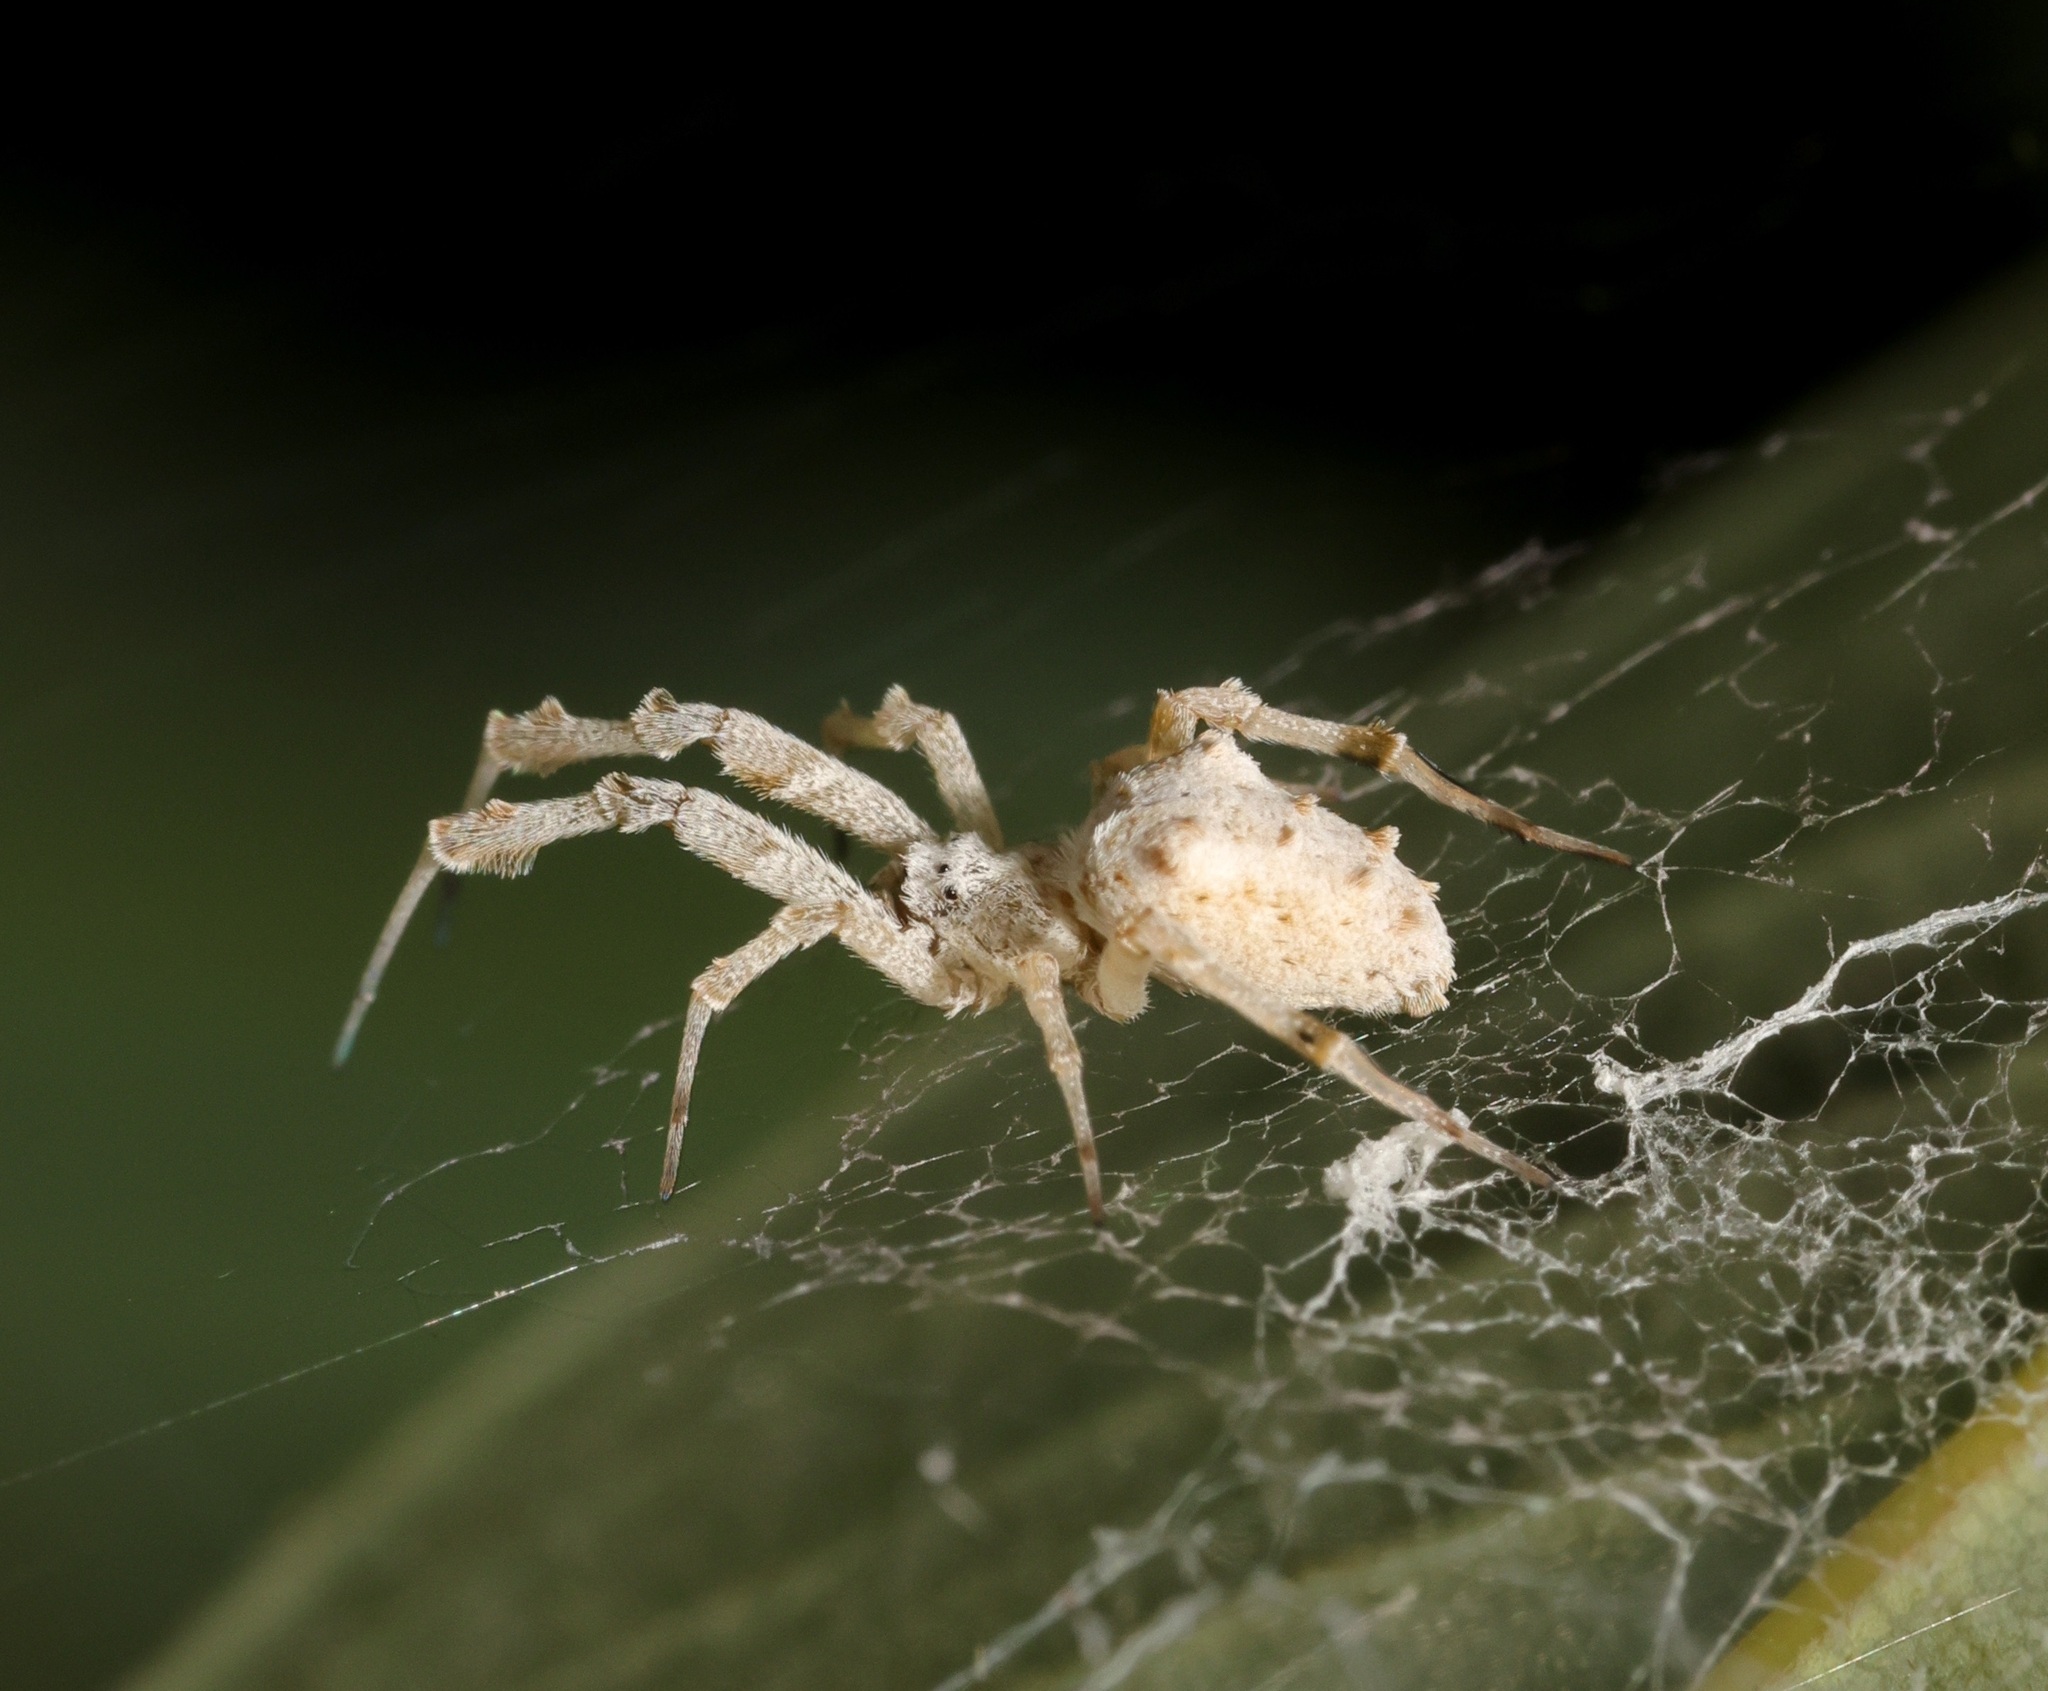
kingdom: Animalia
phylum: Arthropoda
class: Arachnida
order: Araneae
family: Uloboridae
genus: Uloborus
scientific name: Uloborus plumipes
